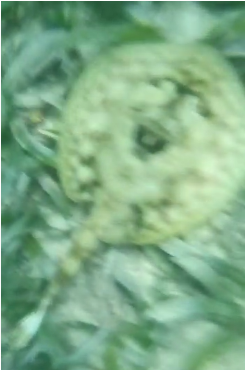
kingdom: Animalia
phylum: Chordata
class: Elasmobranchii
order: Myliobatiformes
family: Urotrygonidae
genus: Urobatis
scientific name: Urobatis jamaicensis
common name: Yellow stingray
